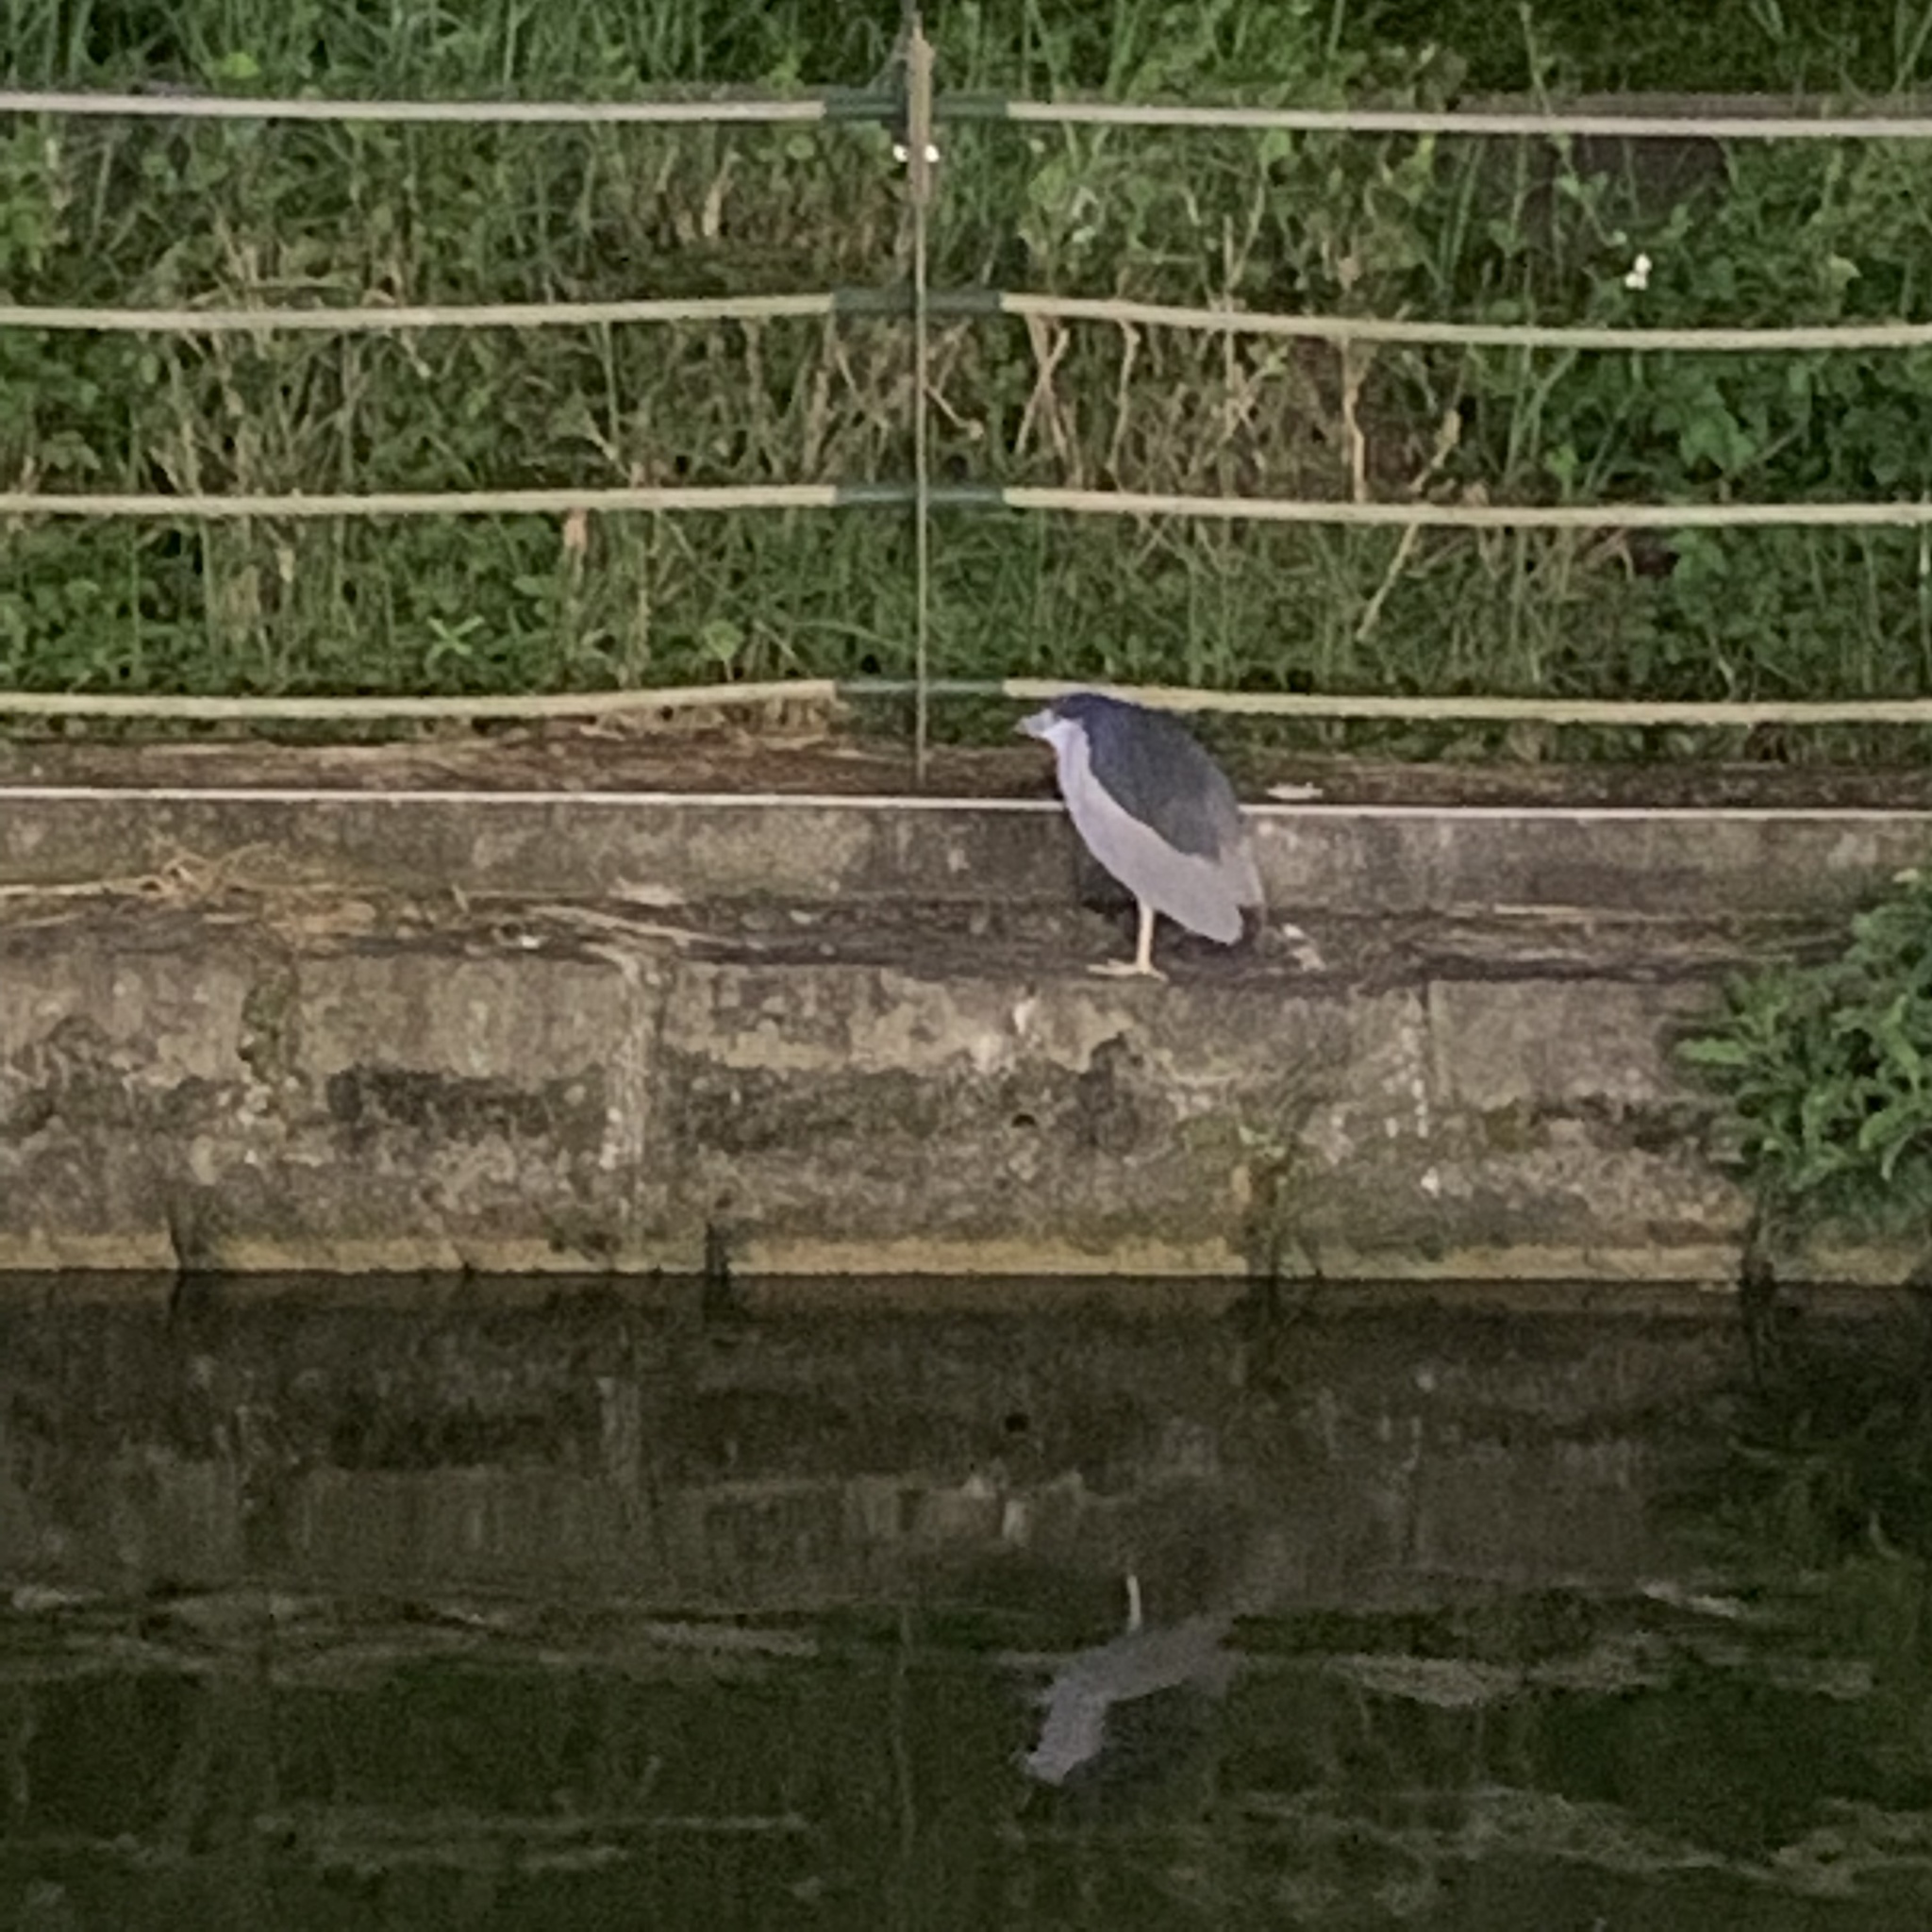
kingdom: Animalia
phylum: Chordata
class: Aves
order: Pelecaniformes
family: Ardeidae
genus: Nycticorax
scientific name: Nycticorax nycticorax
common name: Black-crowned night heron
